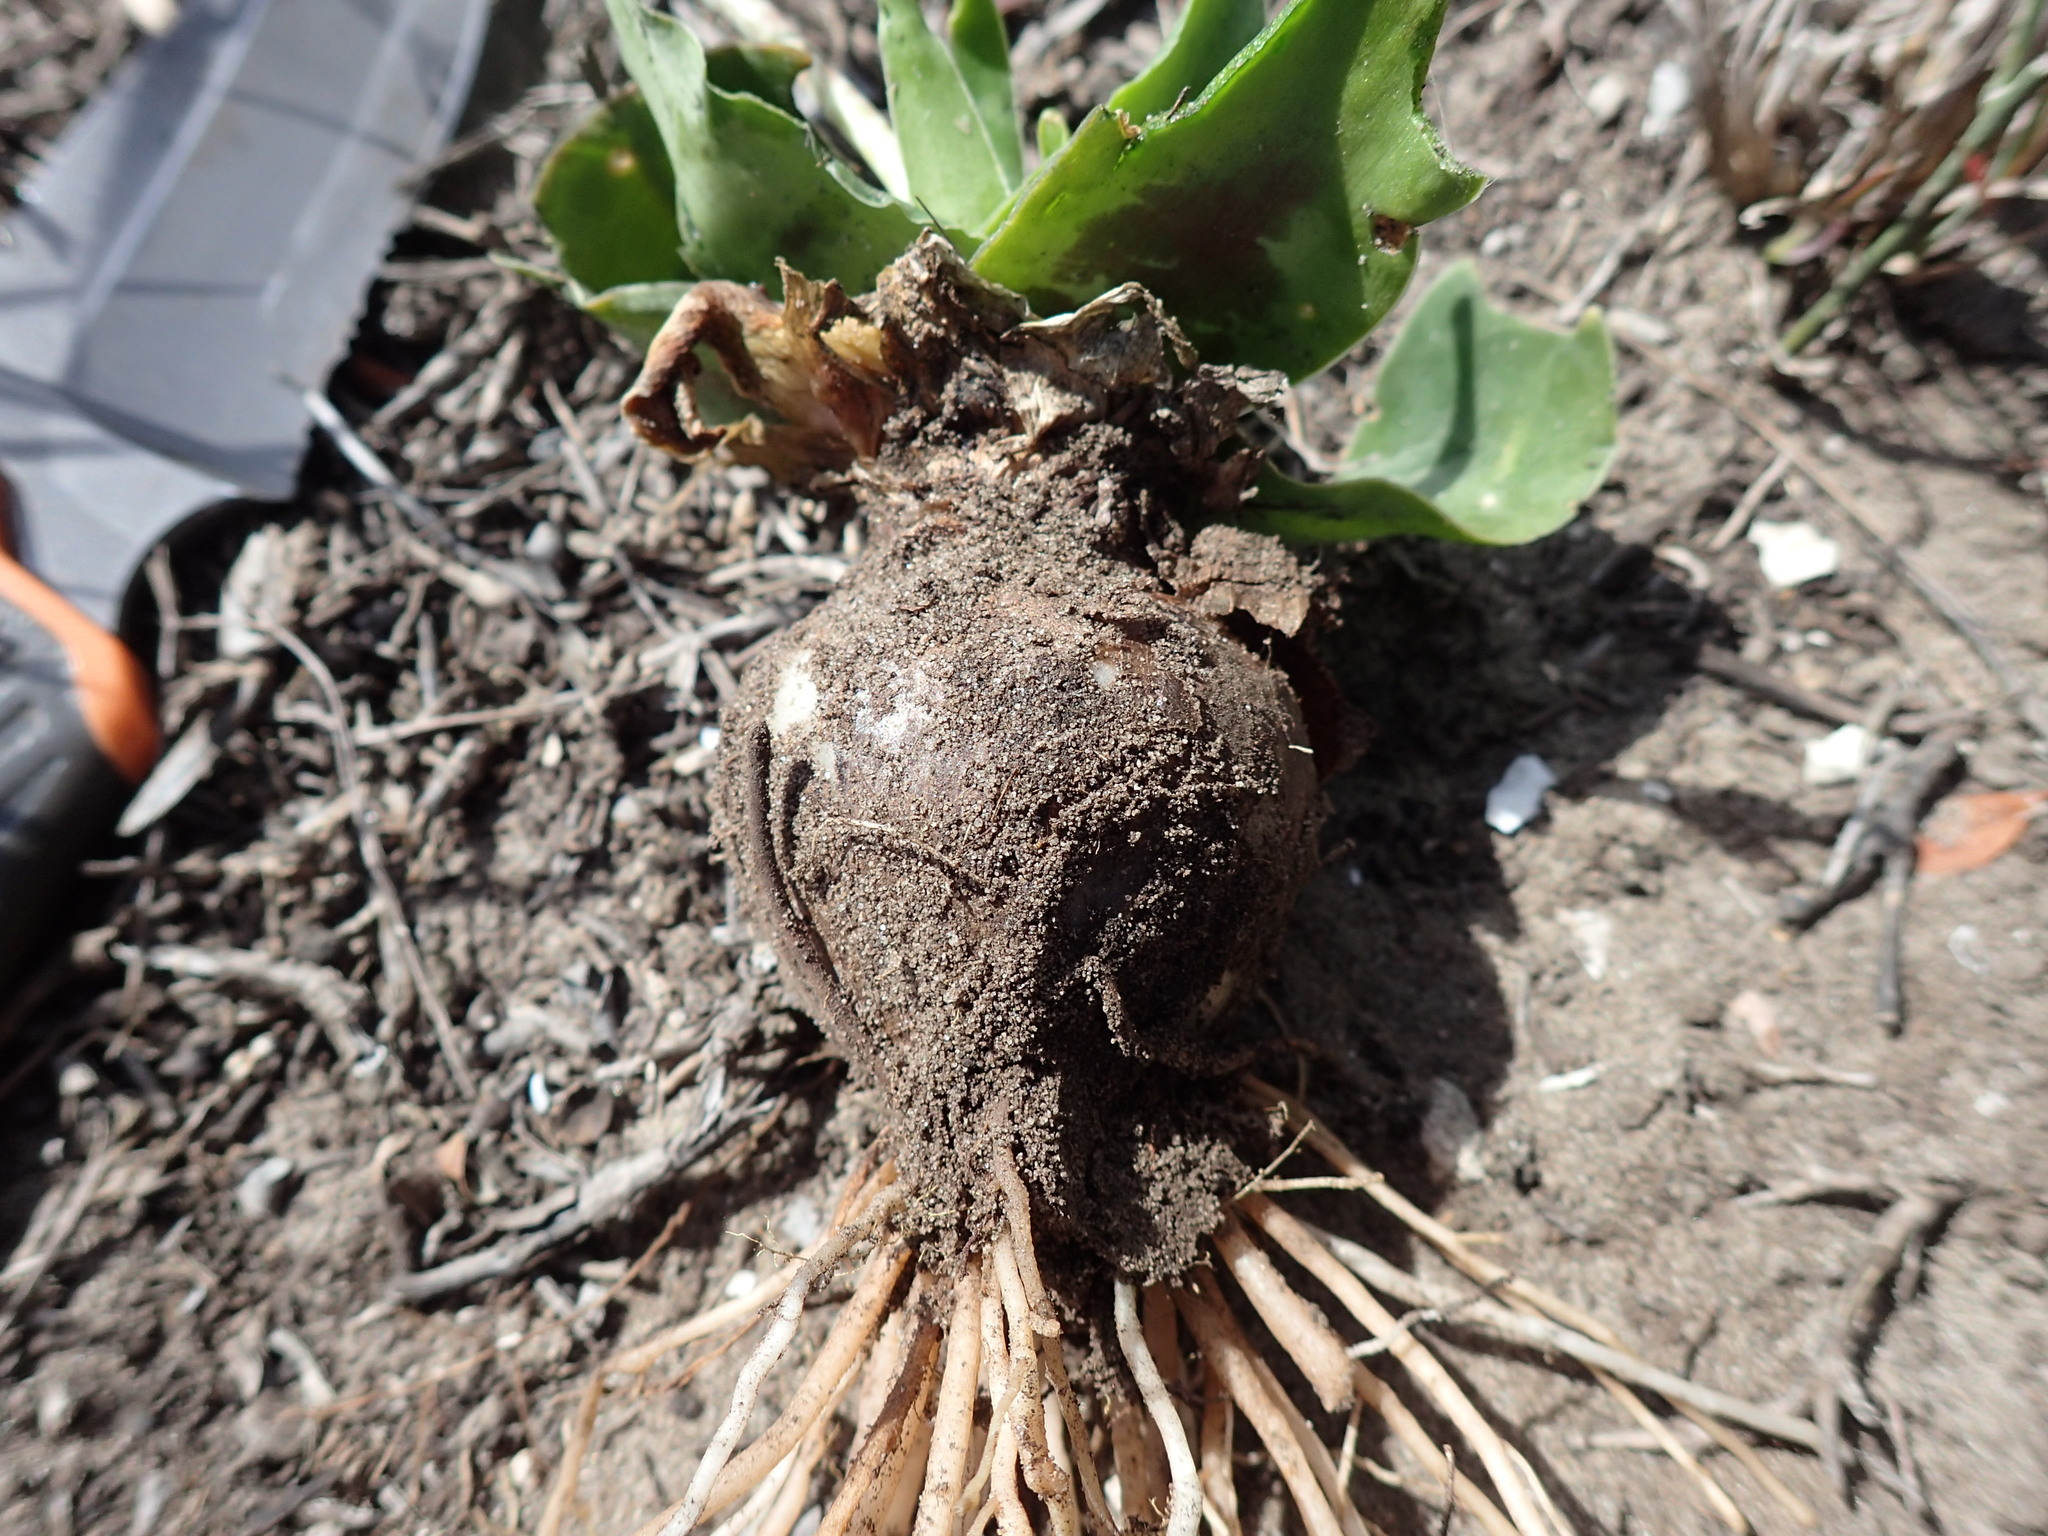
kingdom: Plantae
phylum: Tracheophyta
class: Liliopsida
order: Asparagales
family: Asparagaceae
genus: Ledebouria
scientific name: Ledebouria revoluta
